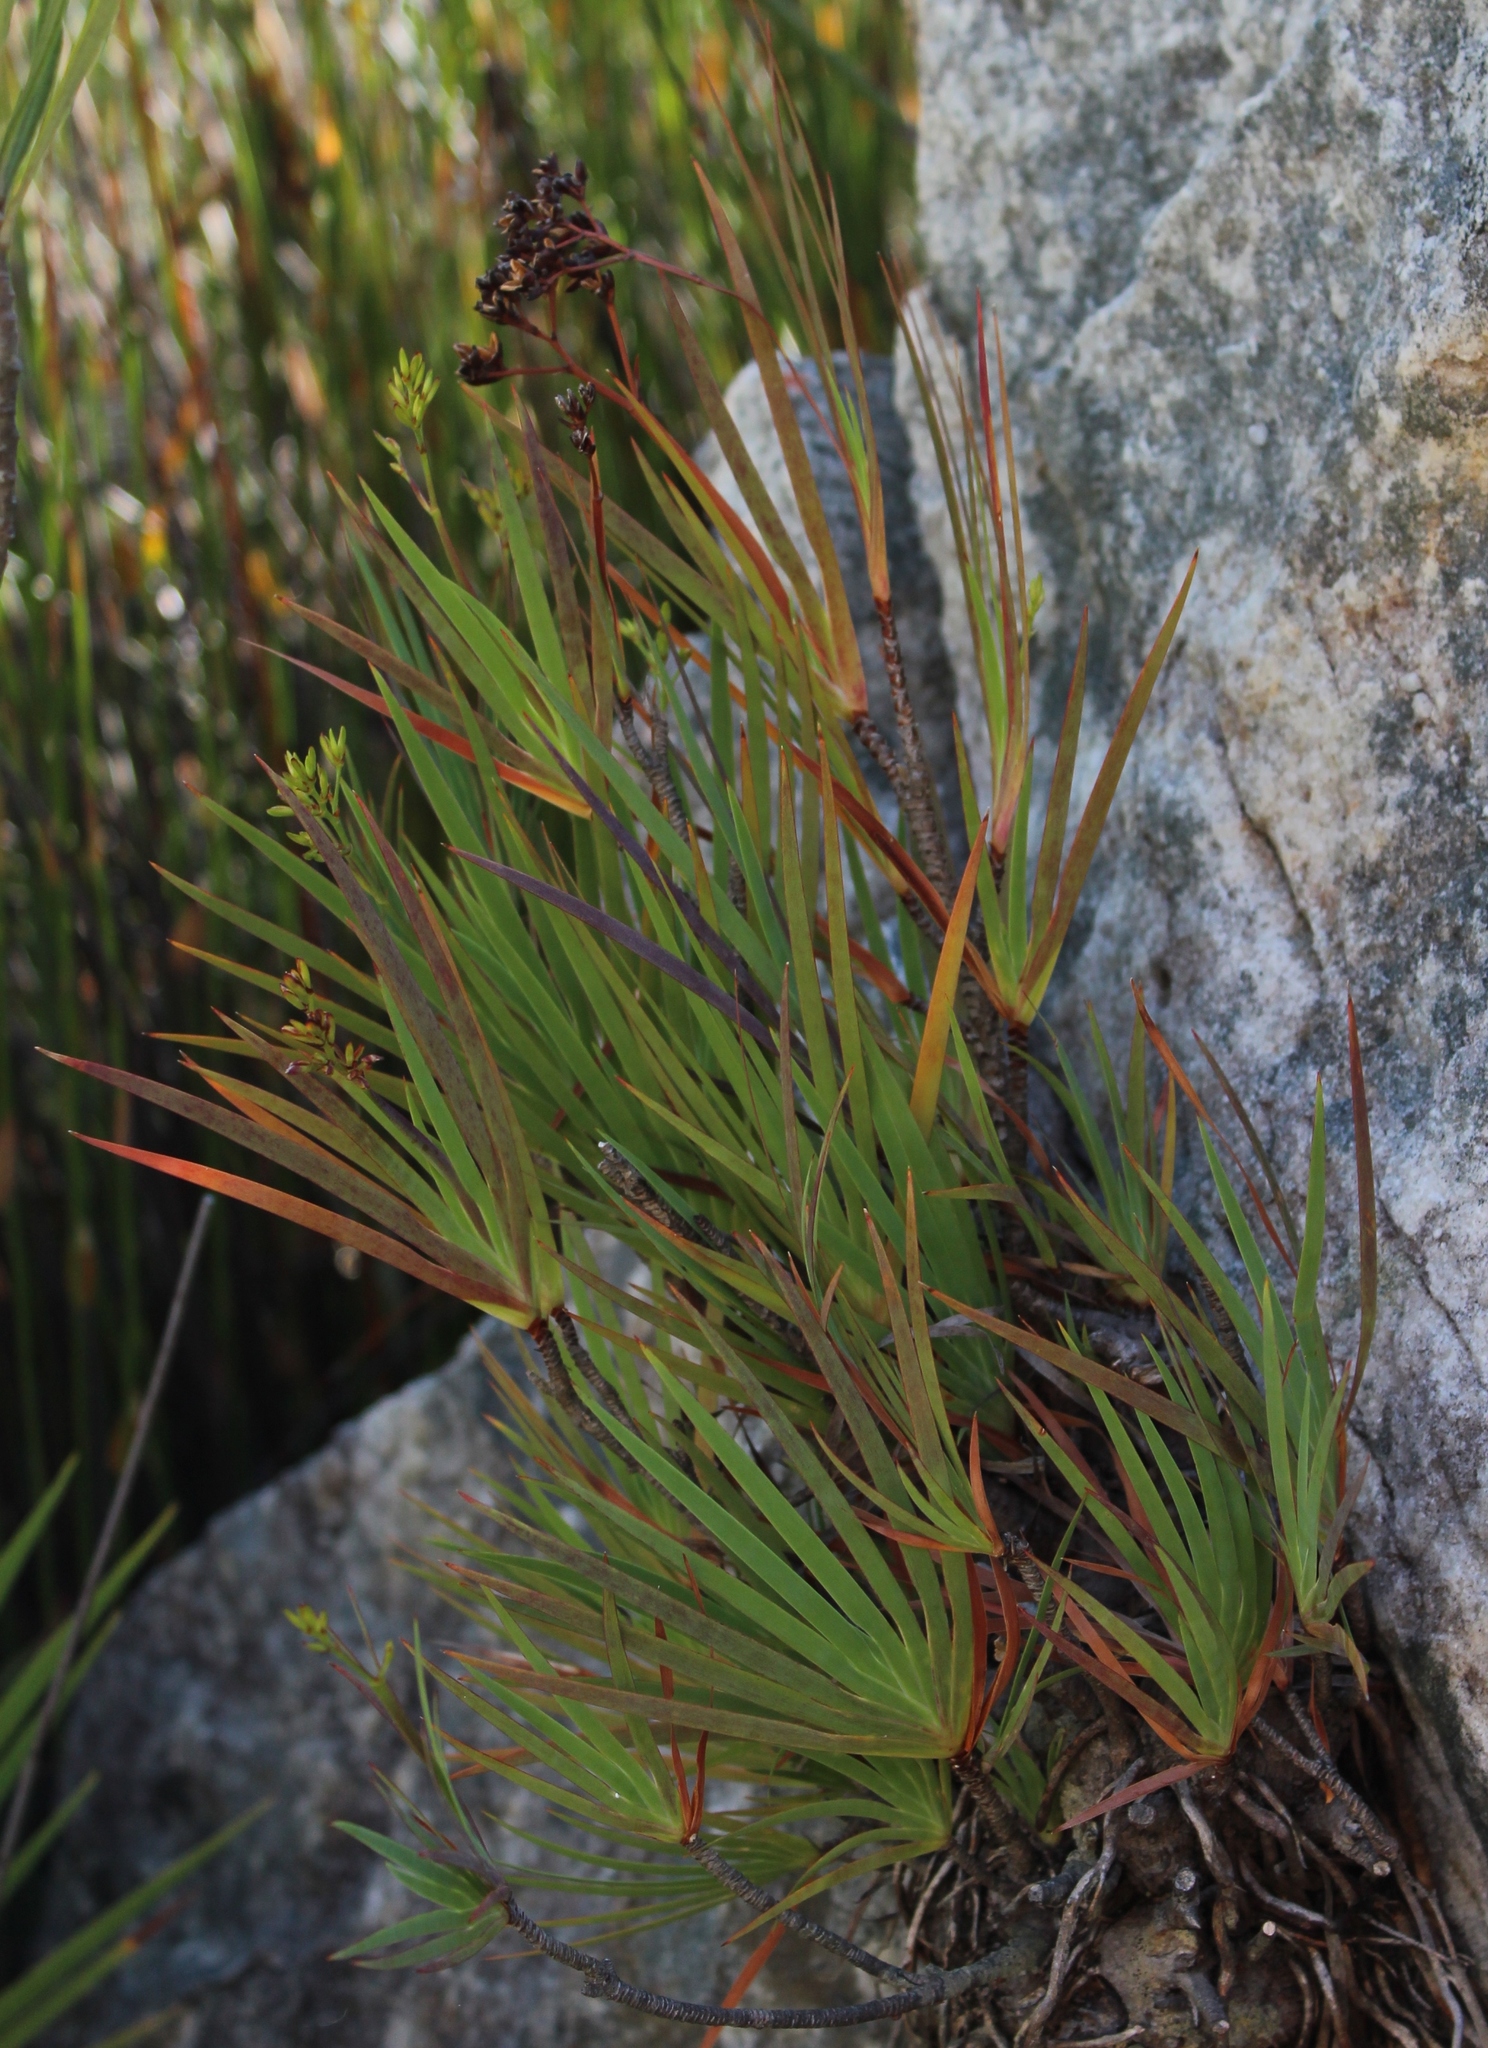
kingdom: Plantae
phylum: Tracheophyta
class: Liliopsida
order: Asparagales
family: Iridaceae
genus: Nivenia
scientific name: Nivenia corymbosa
